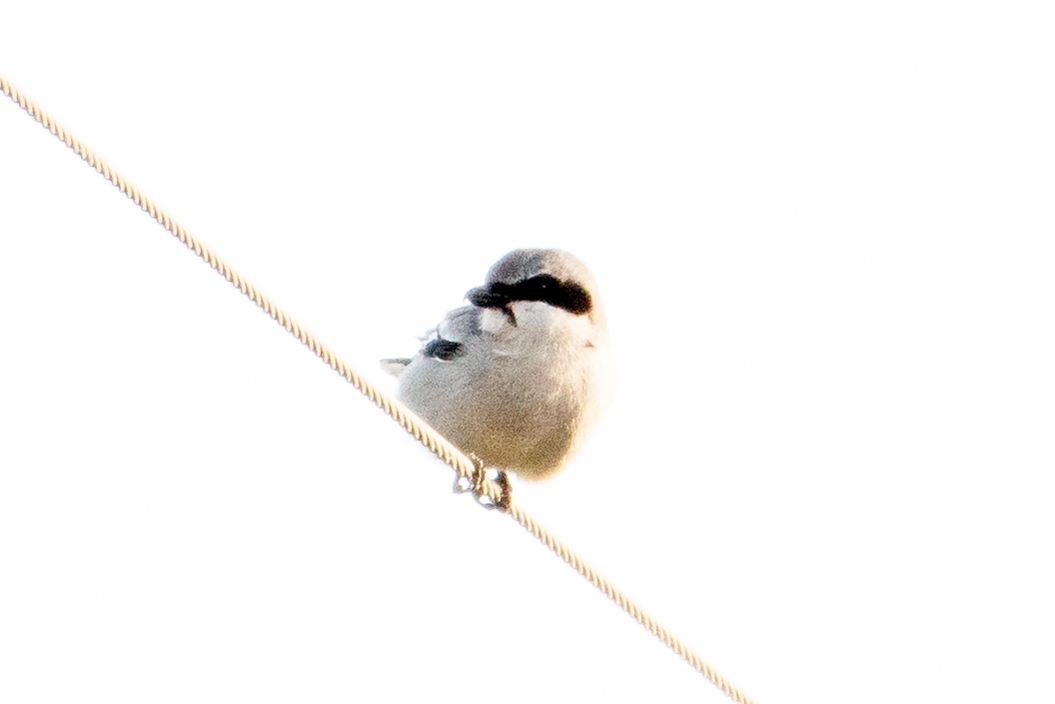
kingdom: Animalia
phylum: Chordata
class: Aves
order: Passeriformes
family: Laniidae
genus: Lanius
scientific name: Lanius ludovicianus
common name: Loggerhead shrike
